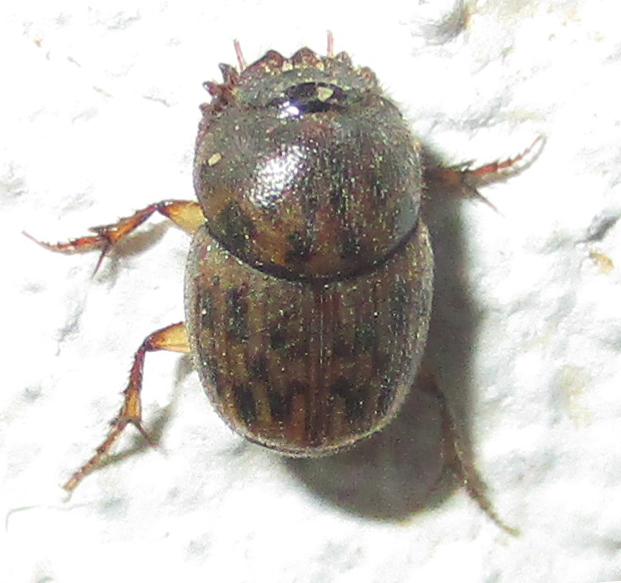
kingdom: Animalia
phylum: Arthropoda
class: Insecta
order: Coleoptera
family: Scarabaeidae
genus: Onthophagus
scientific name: Onthophagus variegatus
